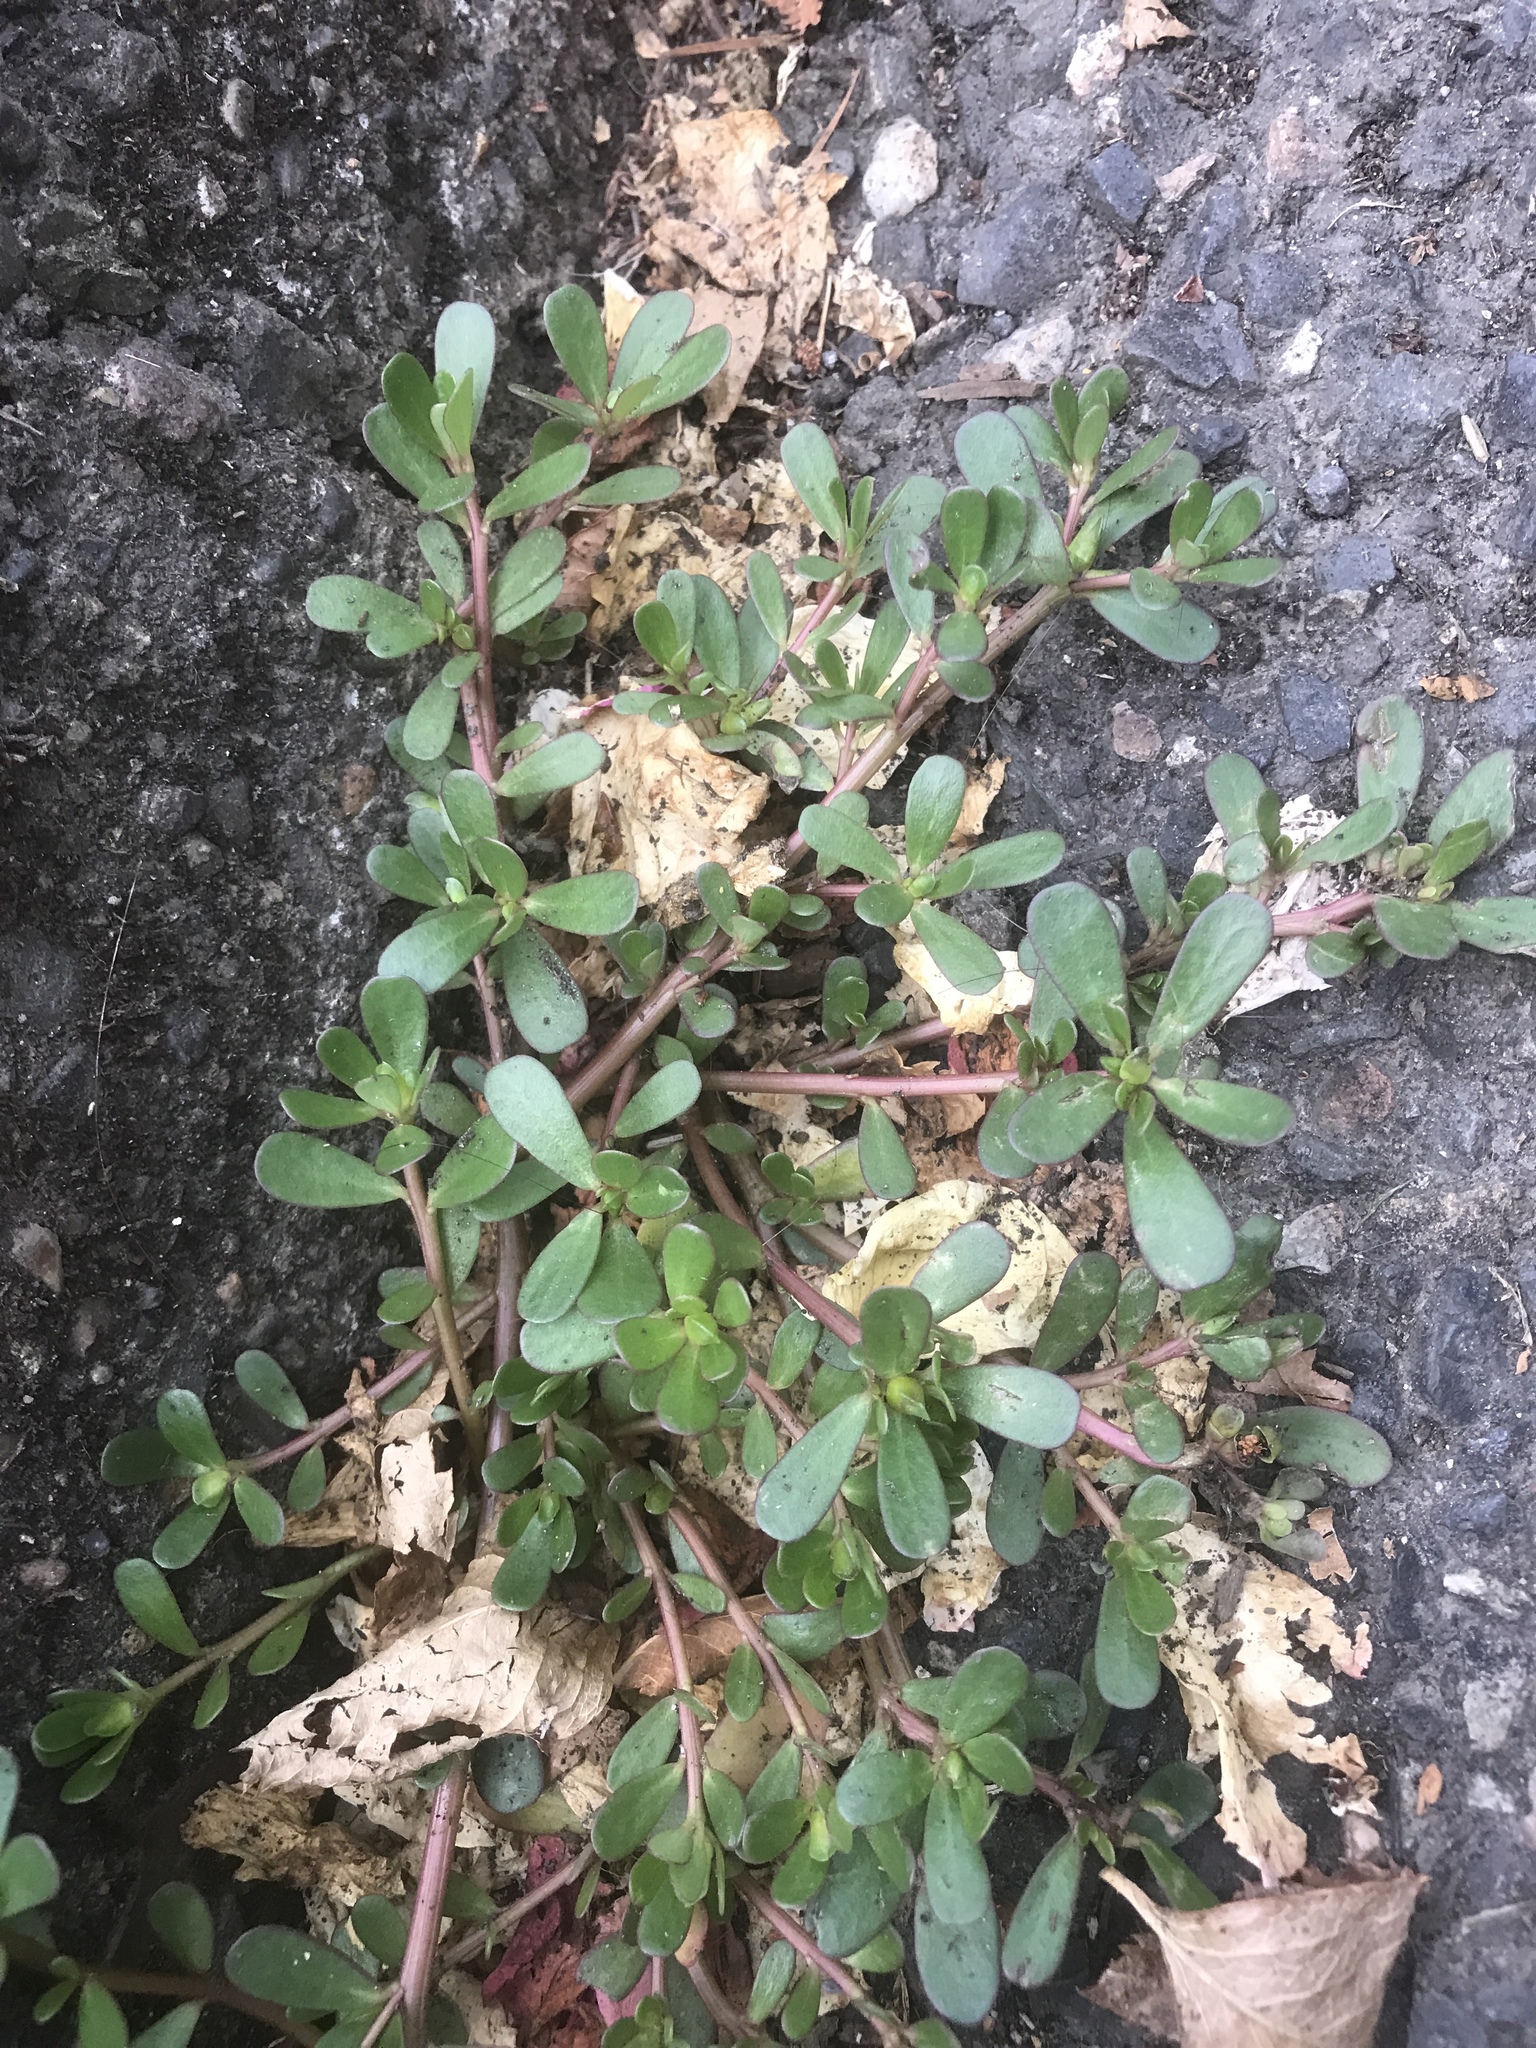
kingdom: Plantae
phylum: Tracheophyta
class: Magnoliopsida
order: Caryophyllales
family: Portulacaceae
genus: Portulaca
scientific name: Portulaca oleracea
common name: Common purslane
